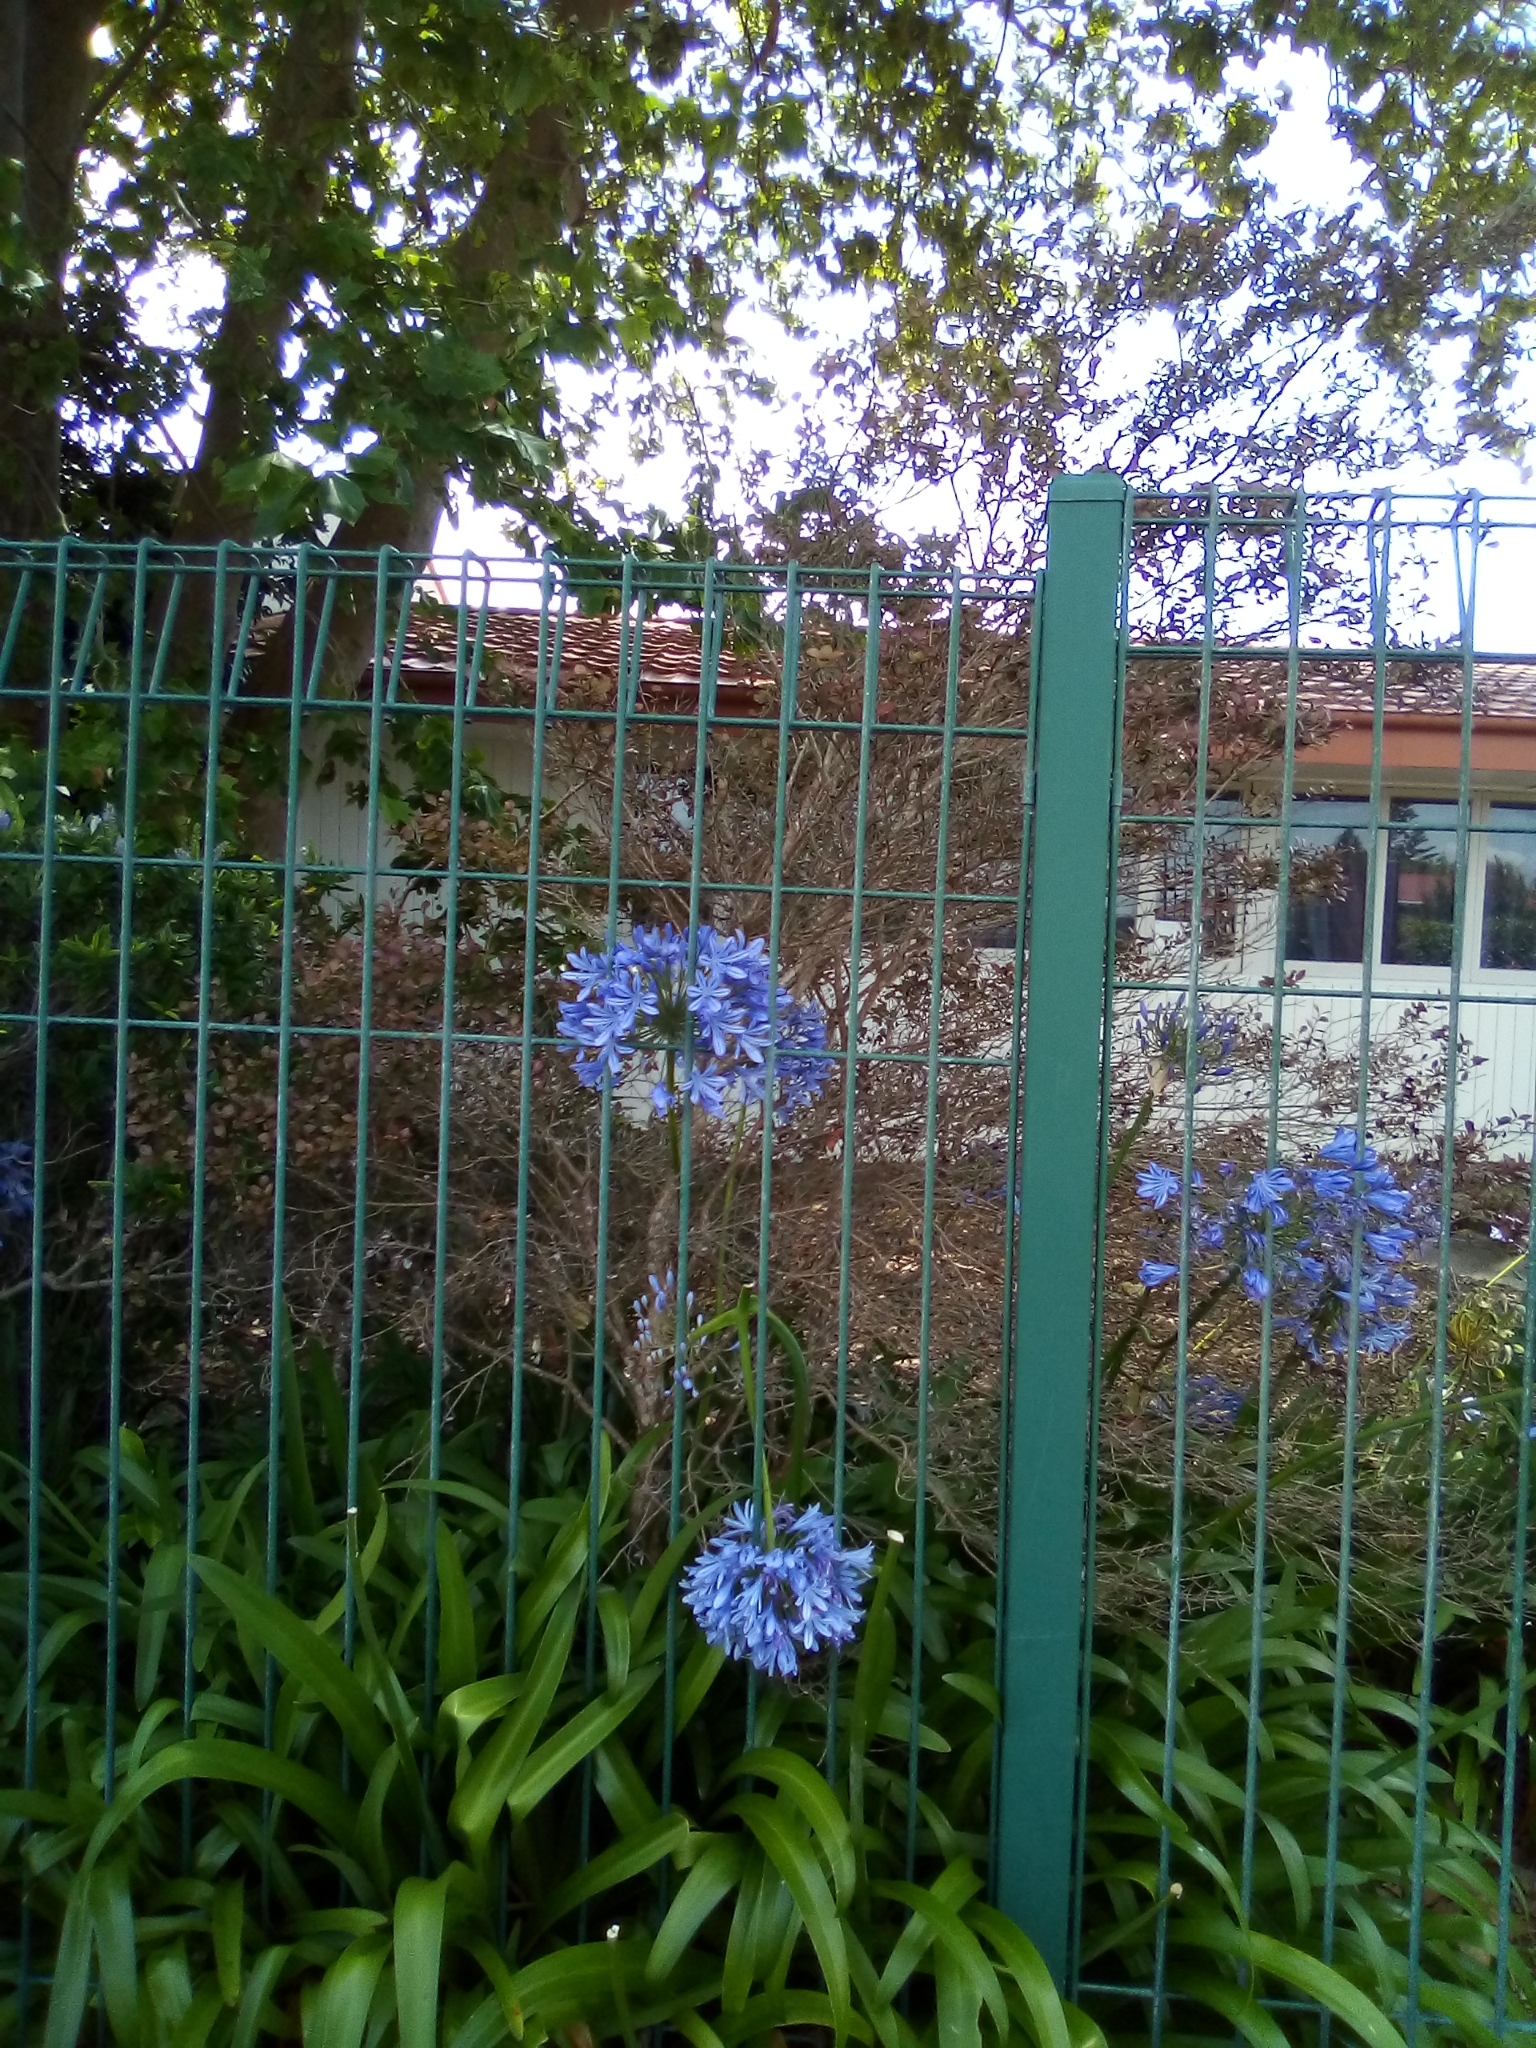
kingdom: Fungi
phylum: Basidiomycota
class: Pucciniomycetes
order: Pucciniales
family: Sphaerophragmiaceae
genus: Austropuccinia
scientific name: Austropuccinia psidii
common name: Myrtle rust
